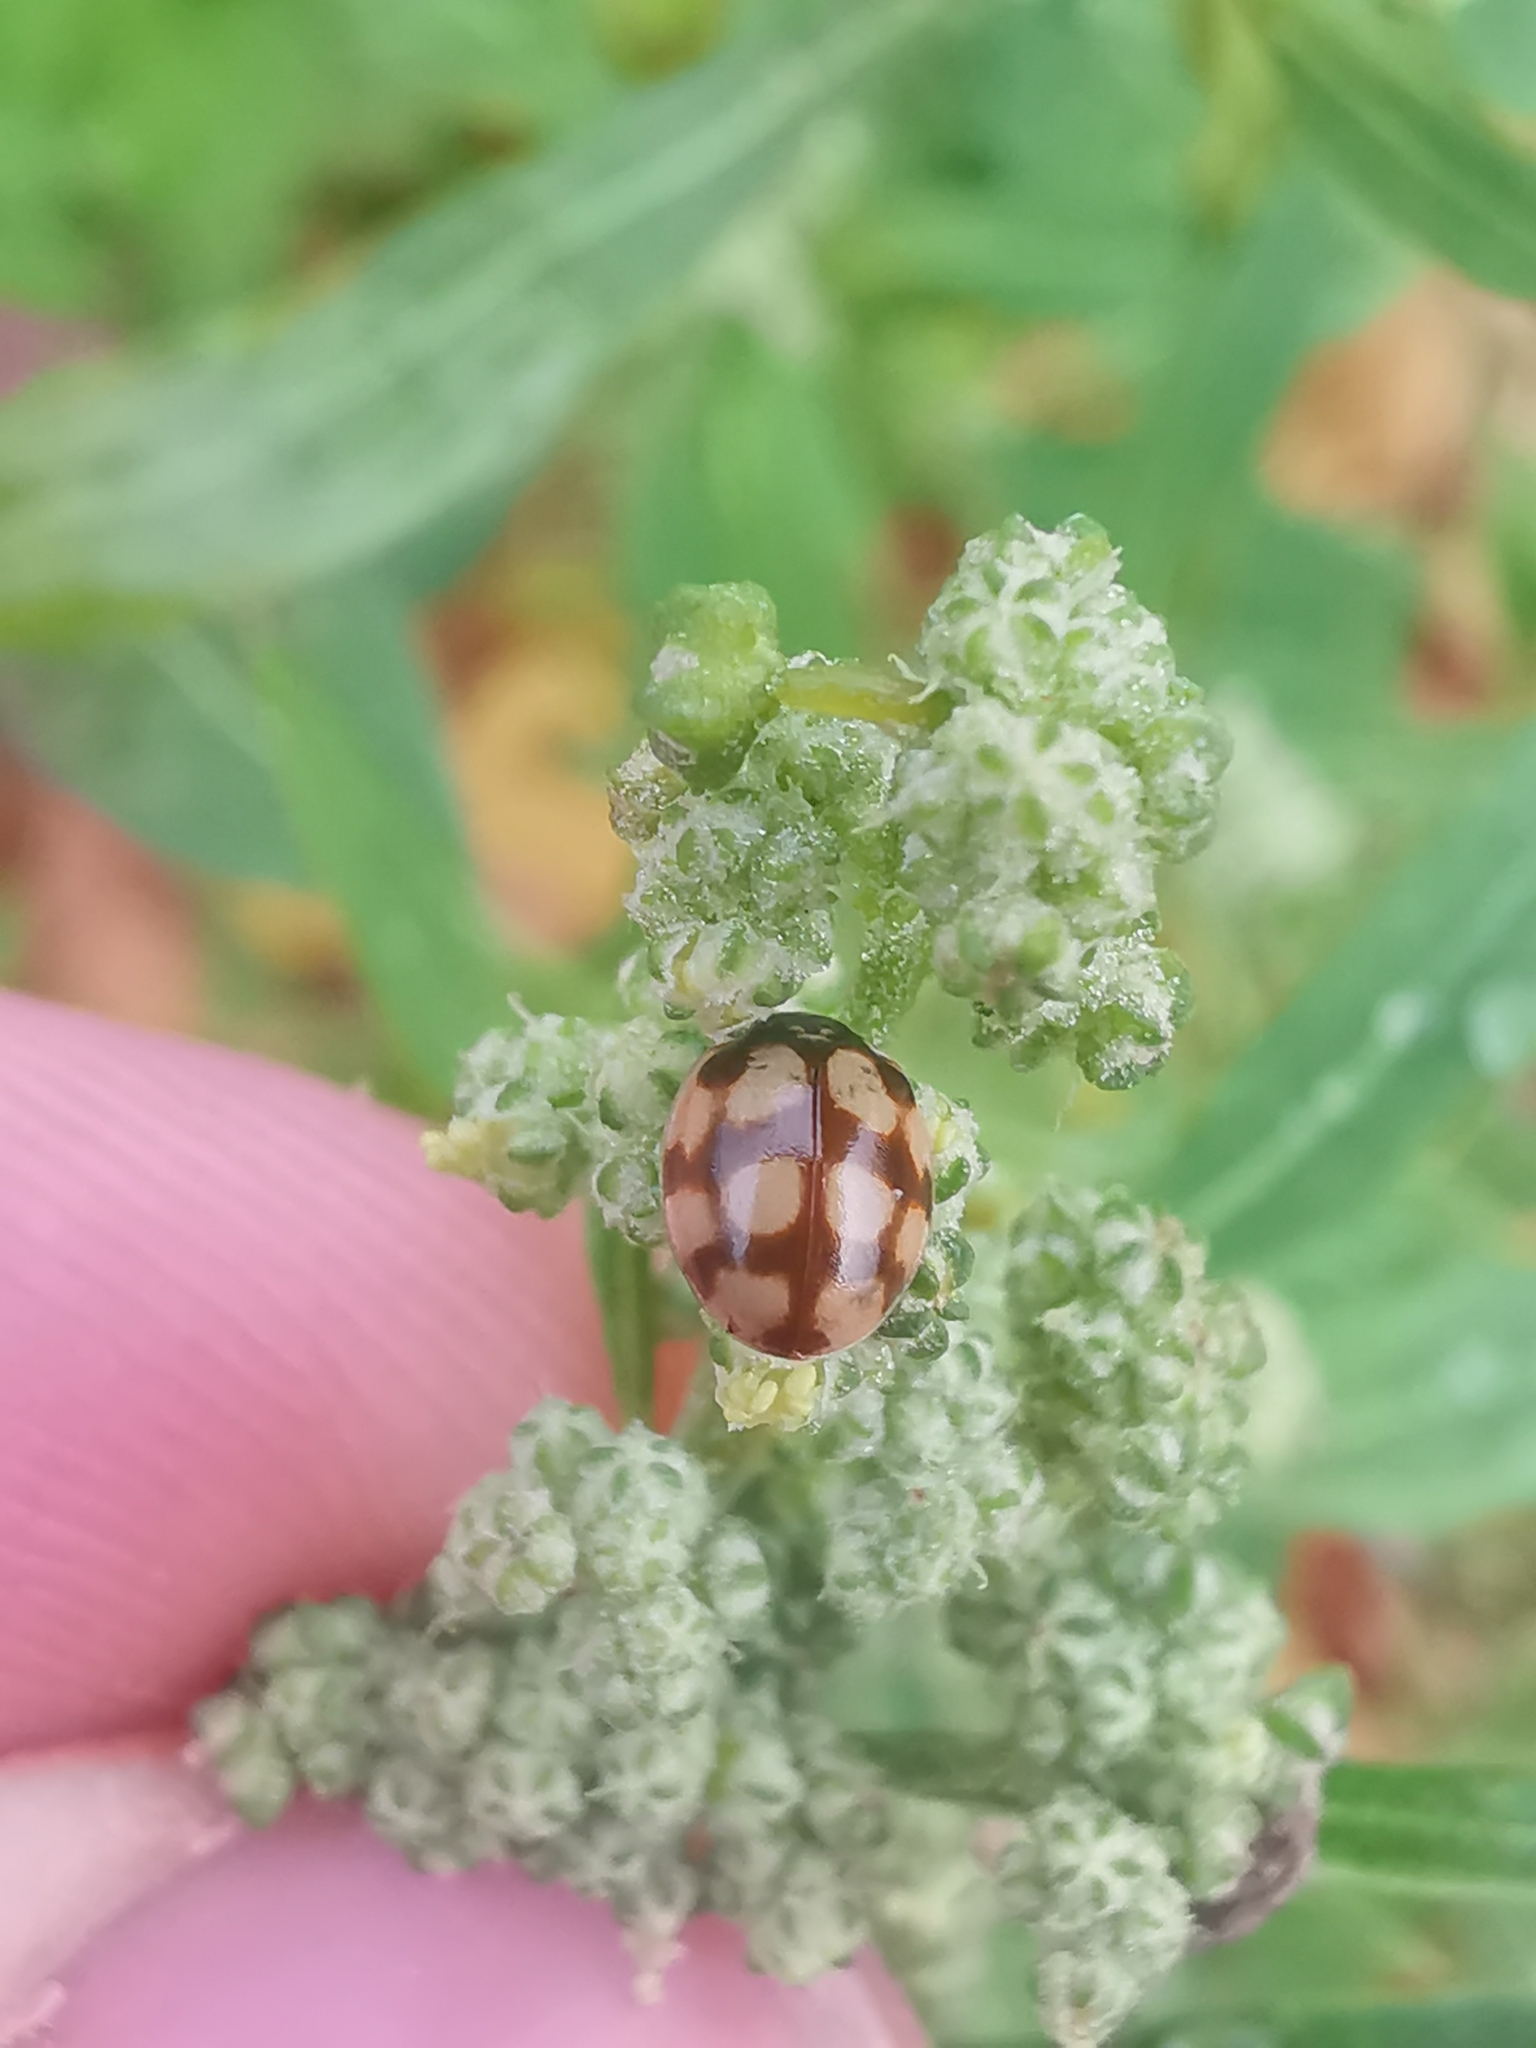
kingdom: Animalia
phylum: Arthropoda
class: Insecta
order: Coleoptera
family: Coccinellidae
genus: Adalia
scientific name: Adalia decempunctata
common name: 10-spot ladybird
